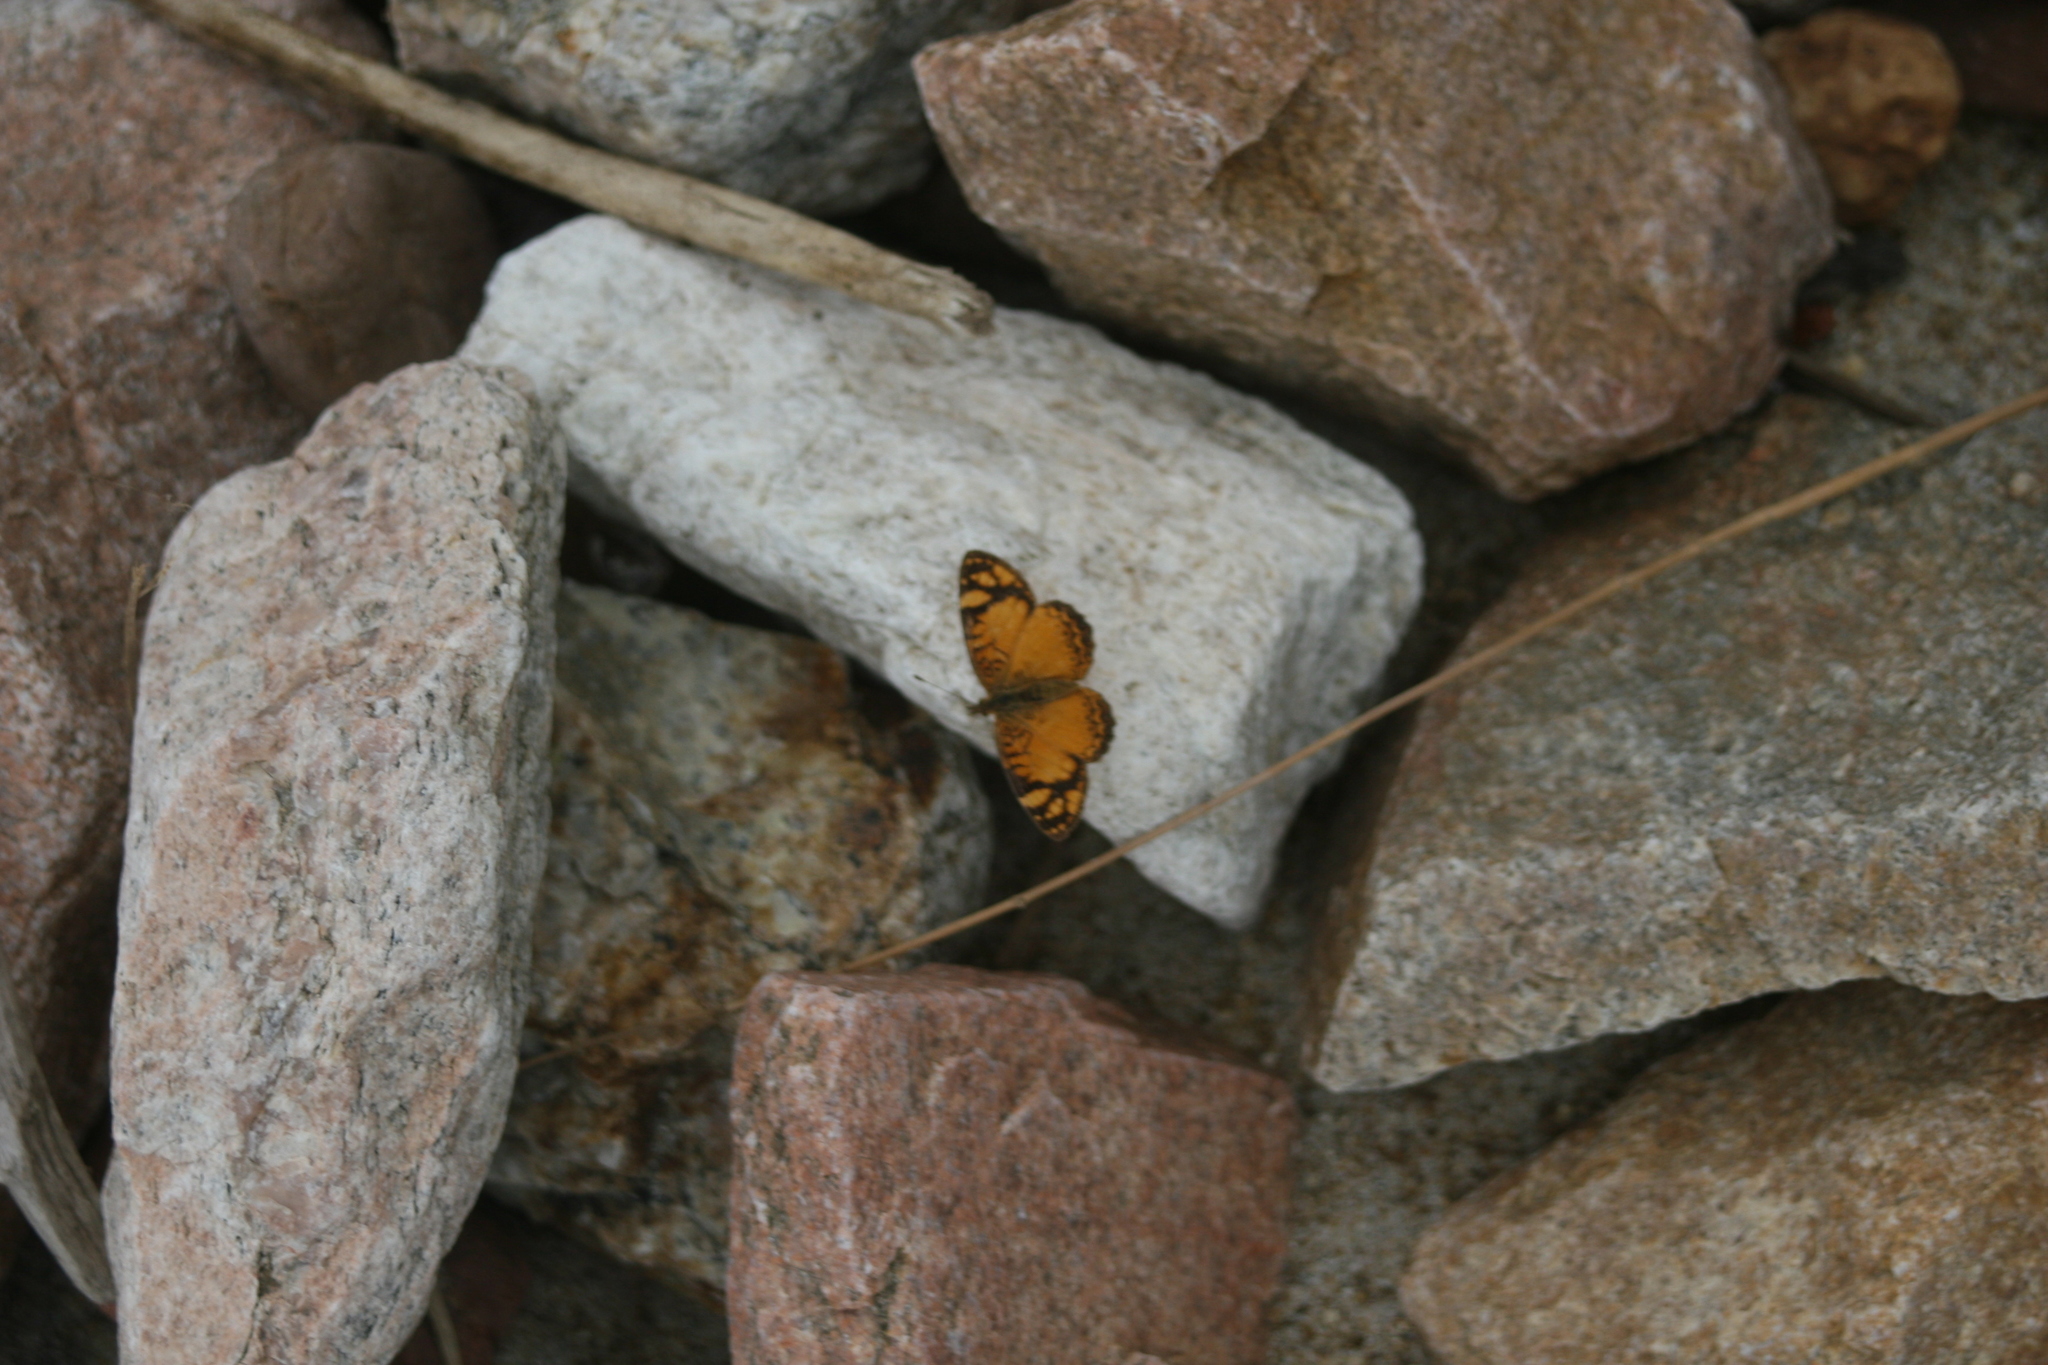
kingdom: Animalia
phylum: Arthropoda
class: Insecta
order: Lepidoptera
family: Nymphalidae
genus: Tegosa
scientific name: Tegosa orobia
